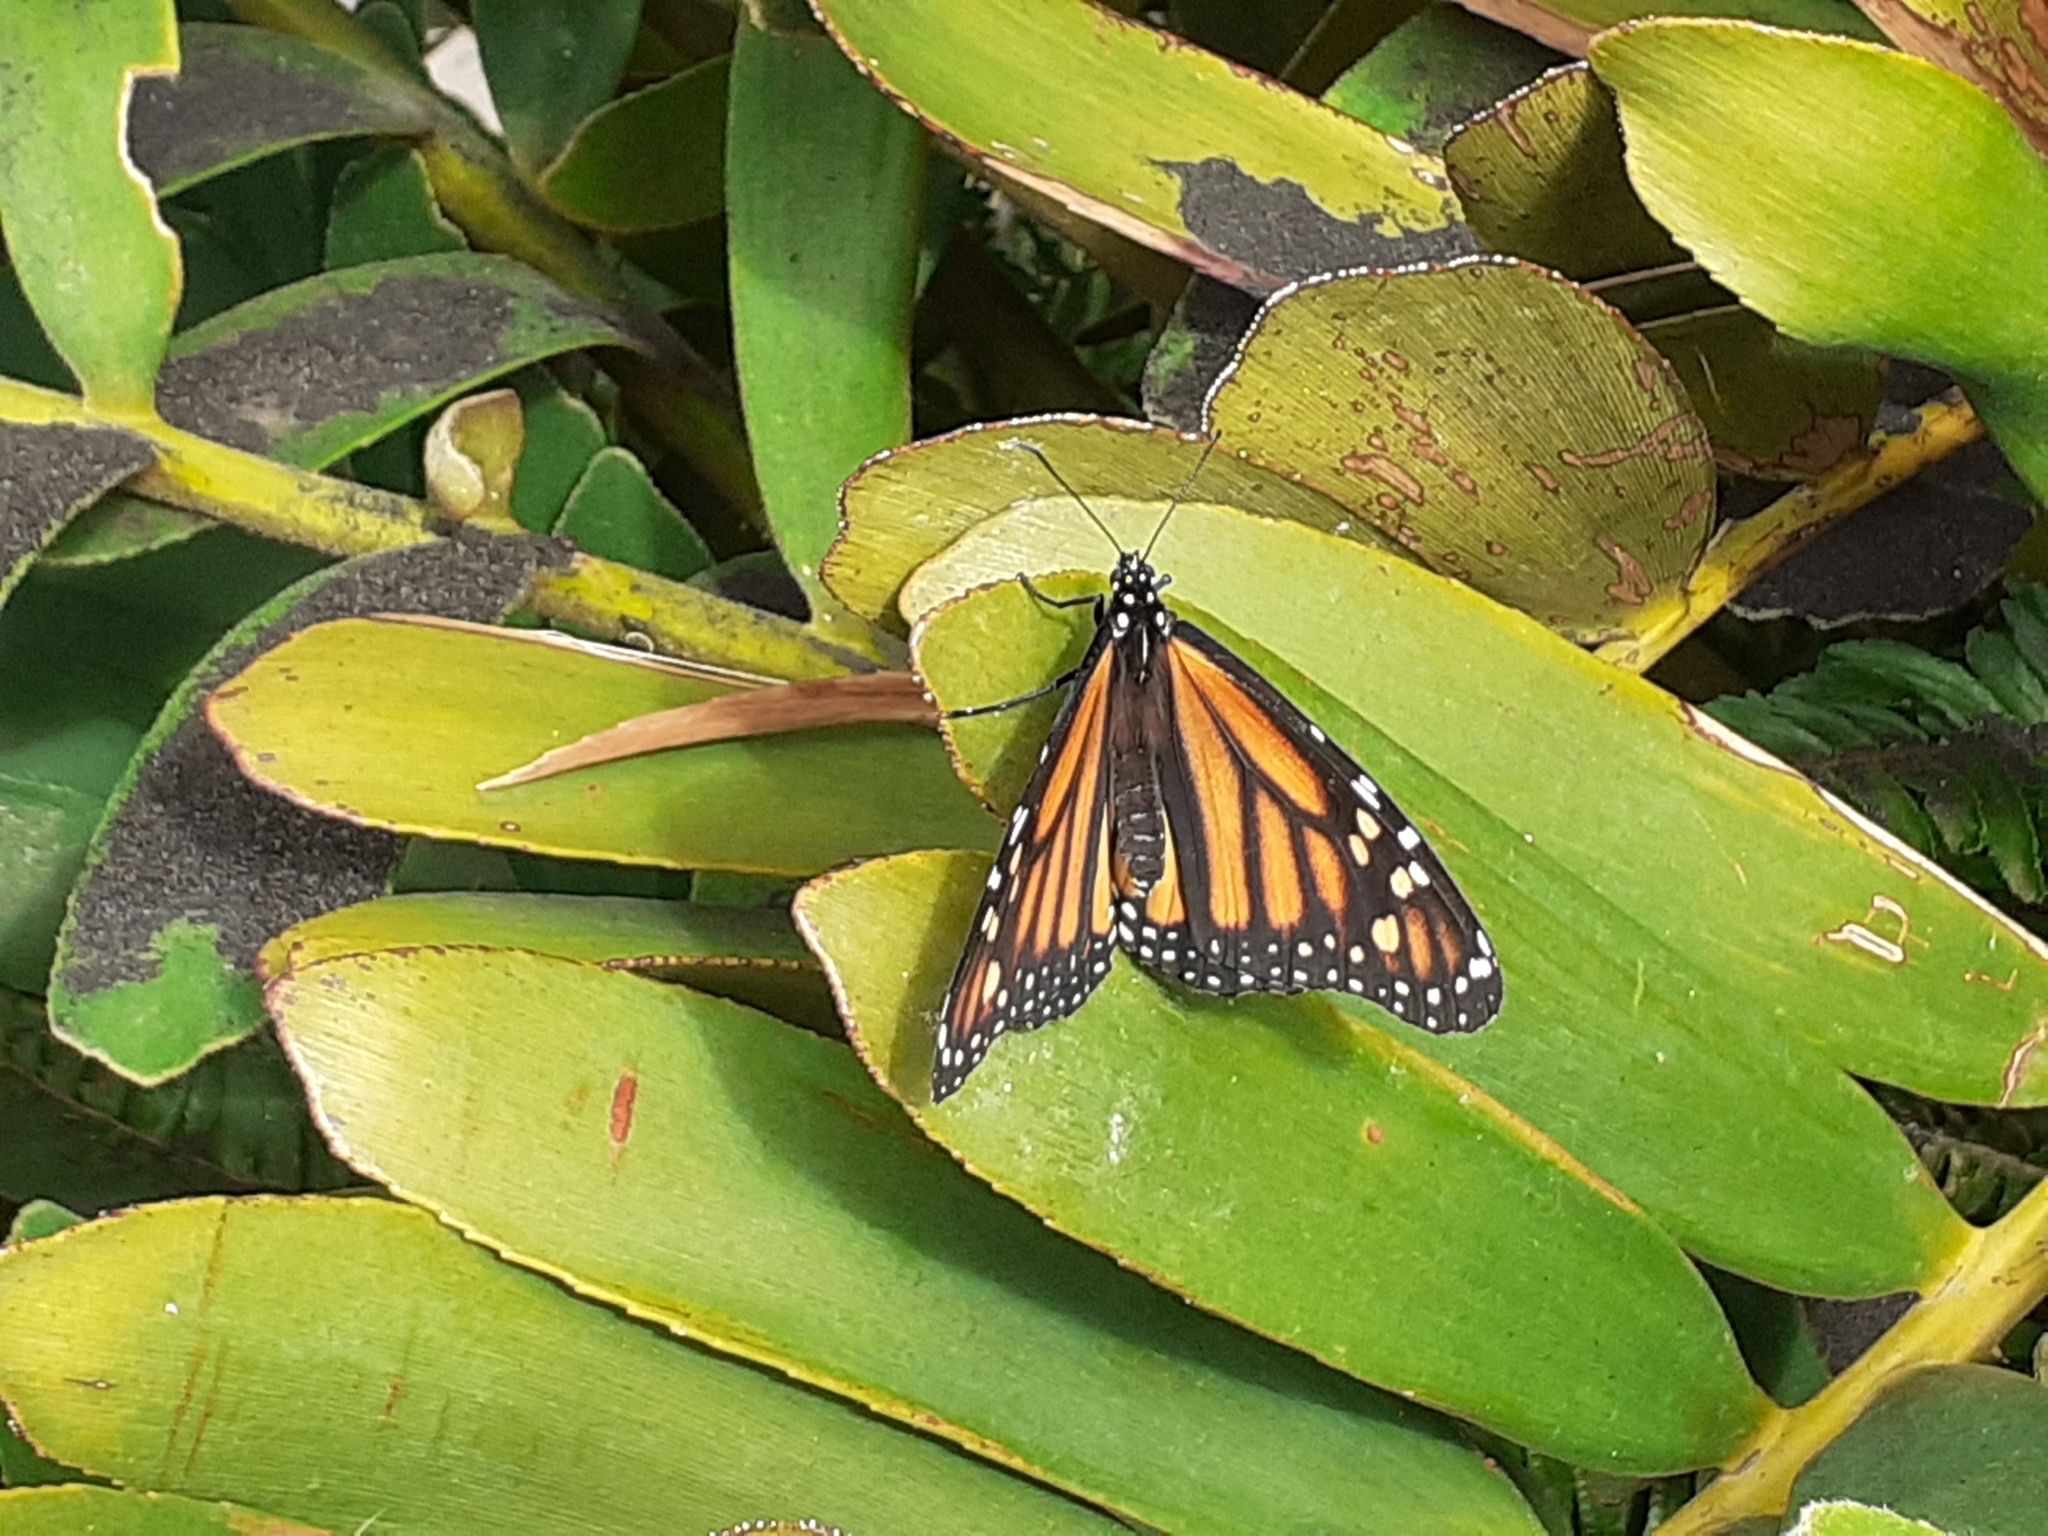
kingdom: Animalia
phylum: Arthropoda
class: Insecta
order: Lepidoptera
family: Nymphalidae
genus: Danaus
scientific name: Danaus plexippus
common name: Monarch
